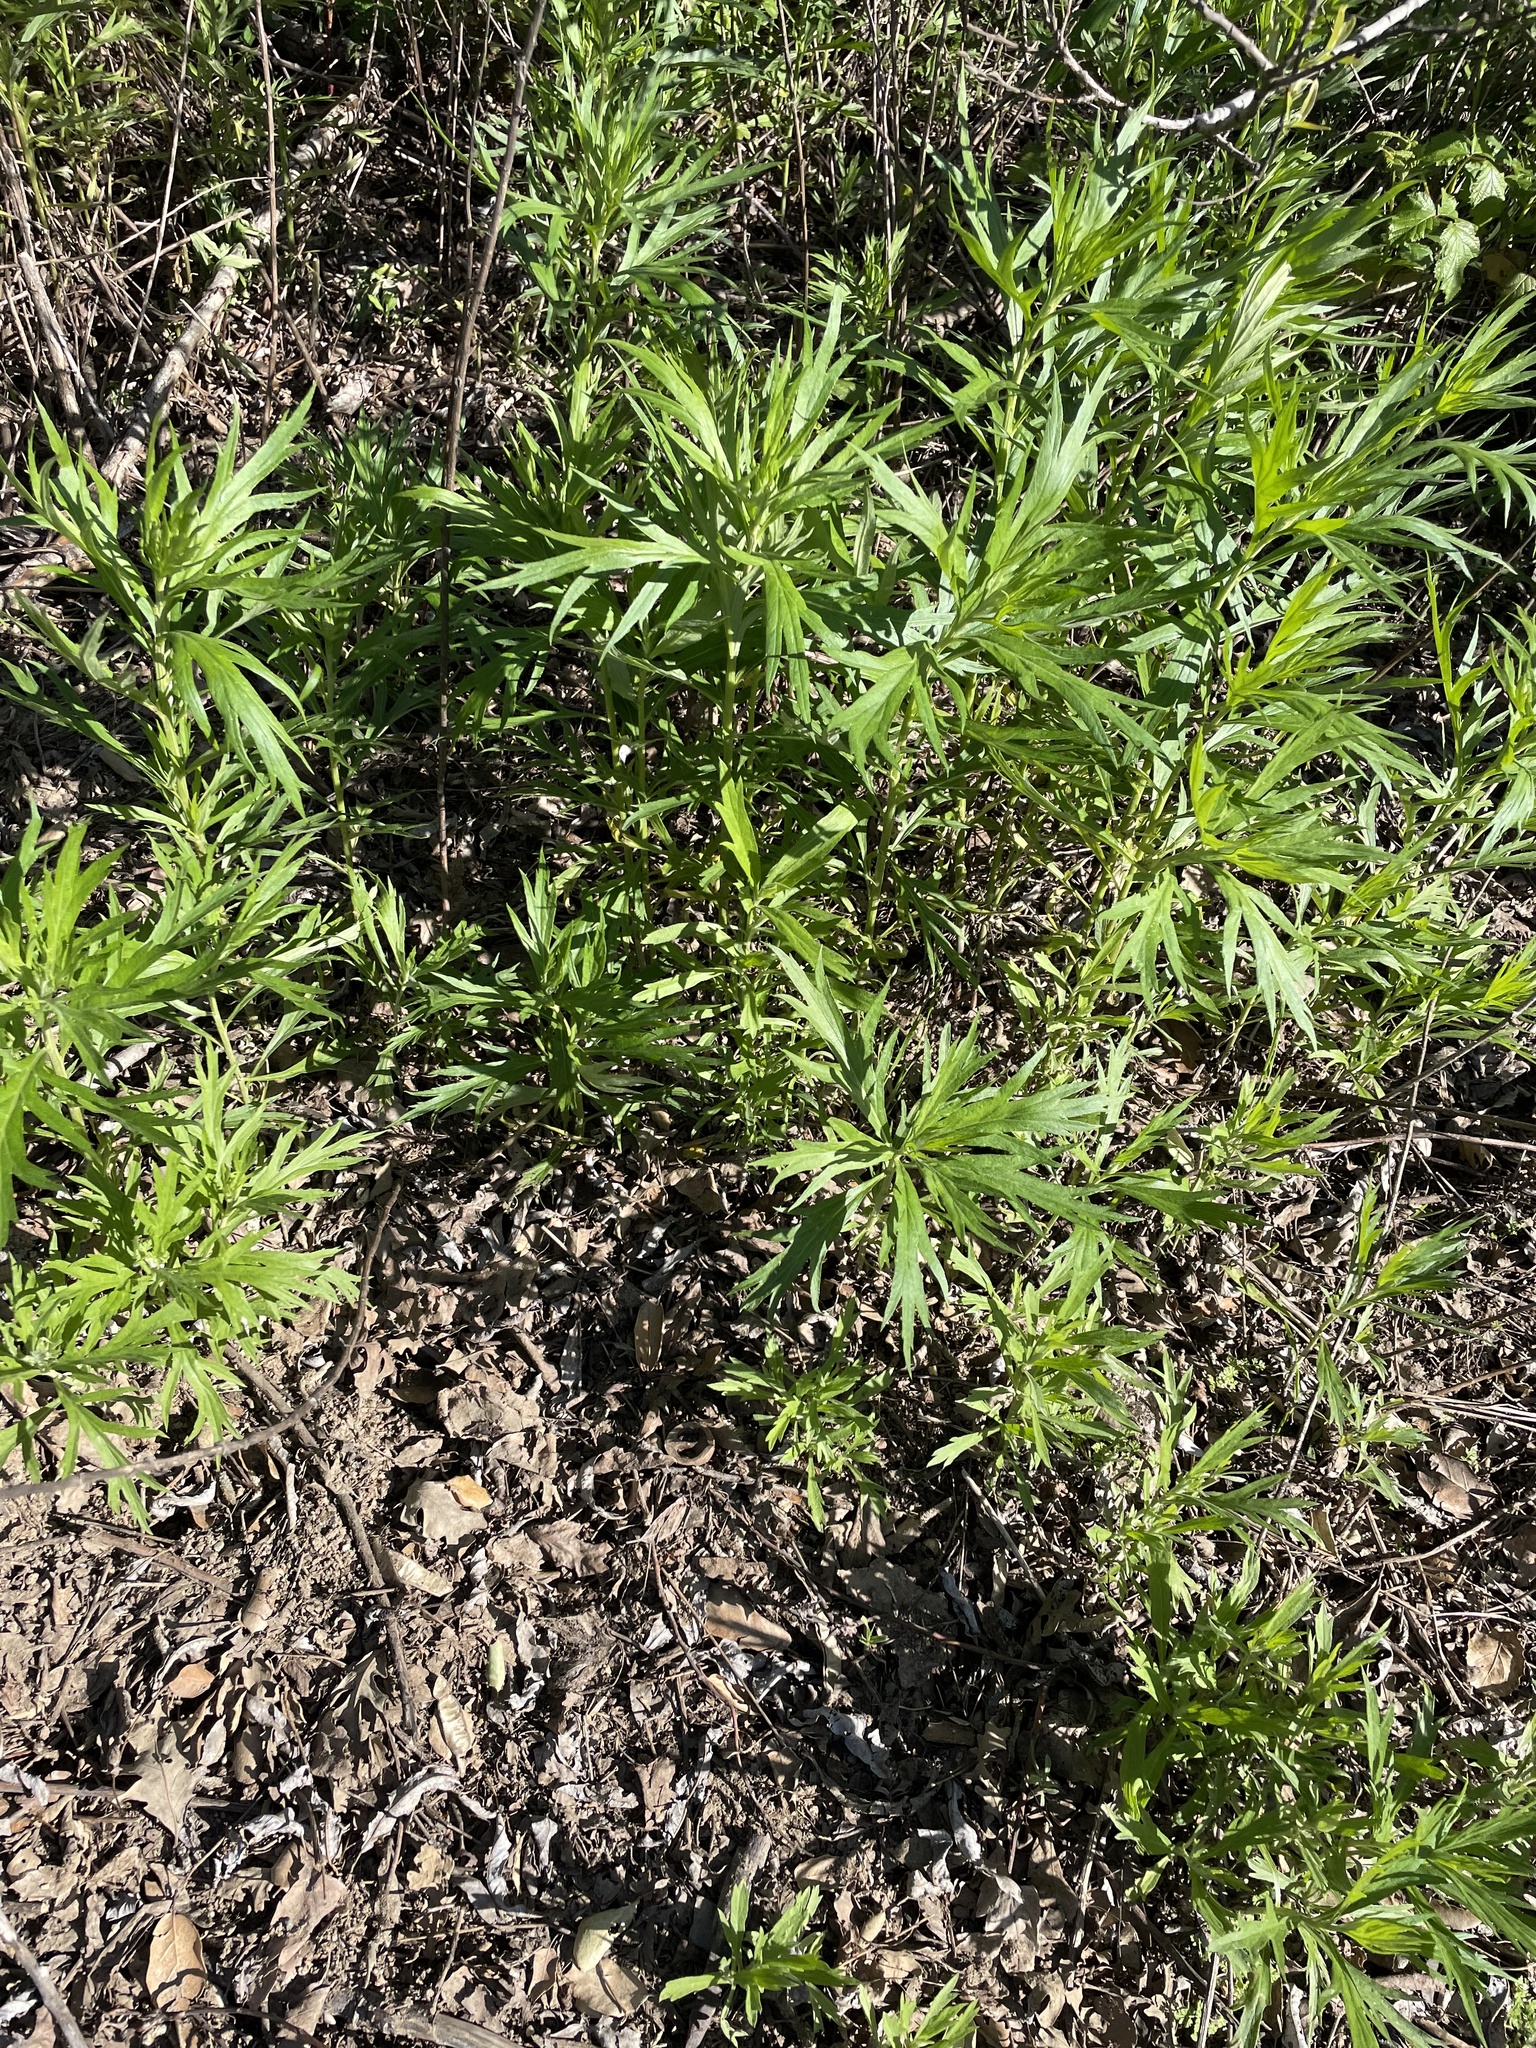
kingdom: Plantae
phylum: Tracheophyta
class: Magnoliopsida
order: Asterales
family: Asteraceae
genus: Artemisia
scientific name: Artemisia douglasiana
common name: Northwest mugwort
